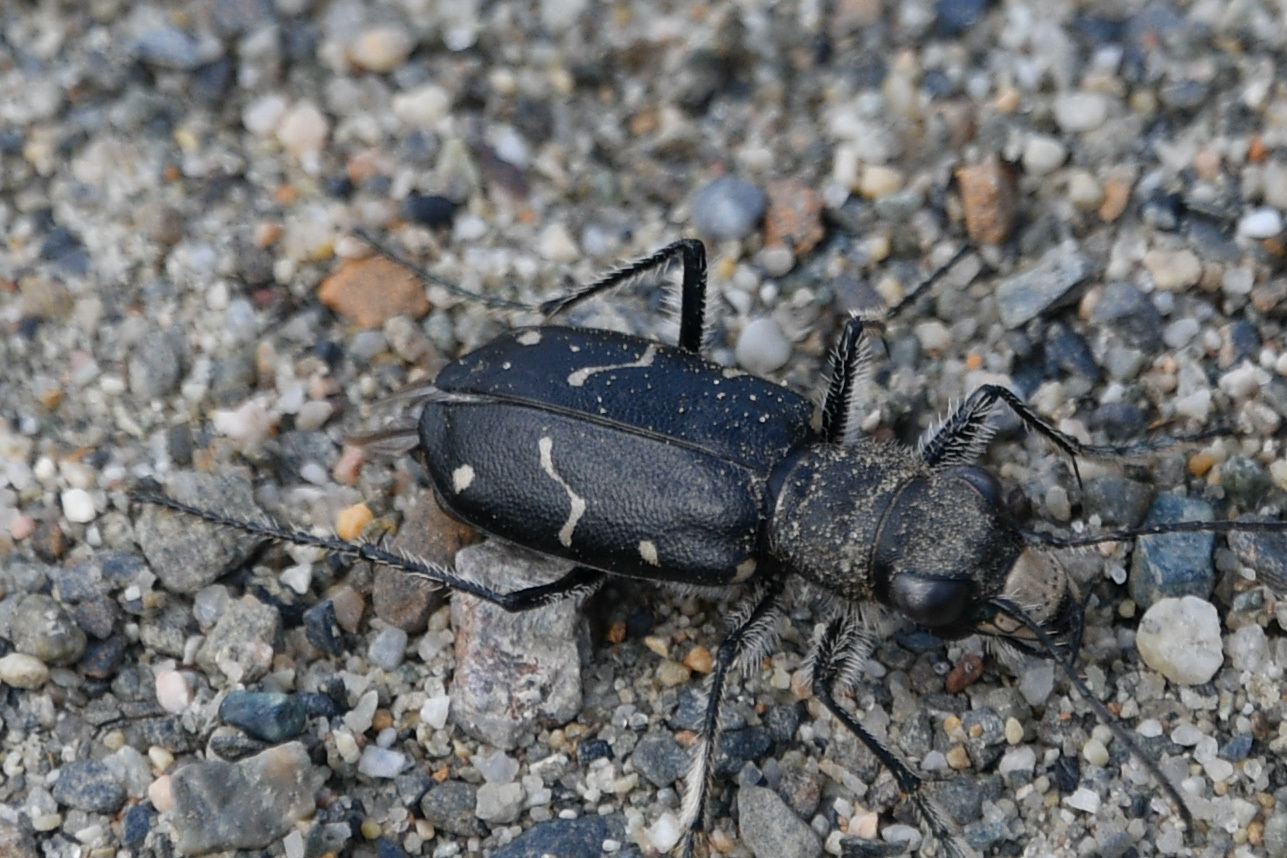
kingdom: Animalia
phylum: Arthropoda
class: Insecta
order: Coleoptera
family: Carabidae
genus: Cicindela
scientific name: Cicindela longilabris
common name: Boreal long-lipped tiger beetle
